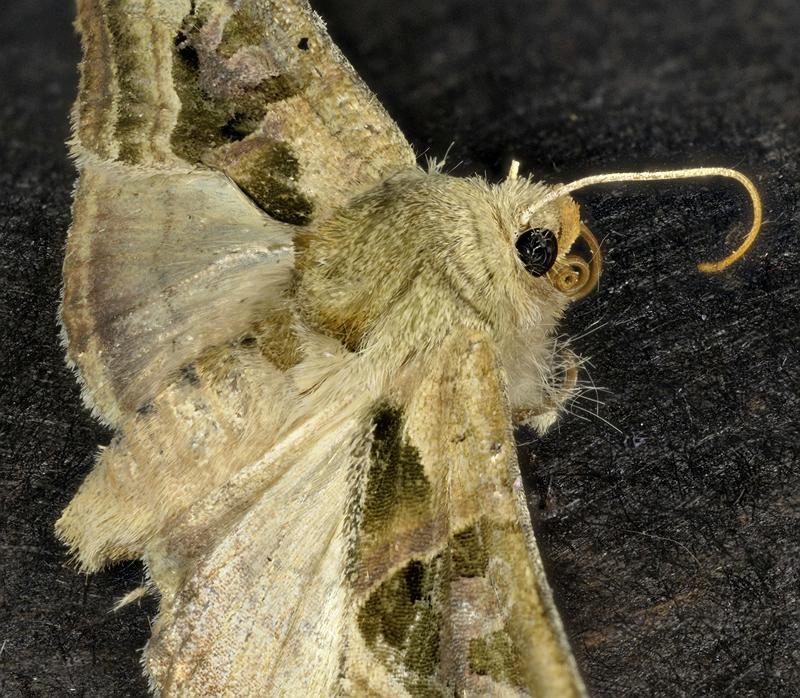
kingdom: Animalia
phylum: Arthropoda
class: Insecta
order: Lepidoptera
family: Noctuidae
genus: Phlogophora
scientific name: Phlogophora iris
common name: Olive angle shades
